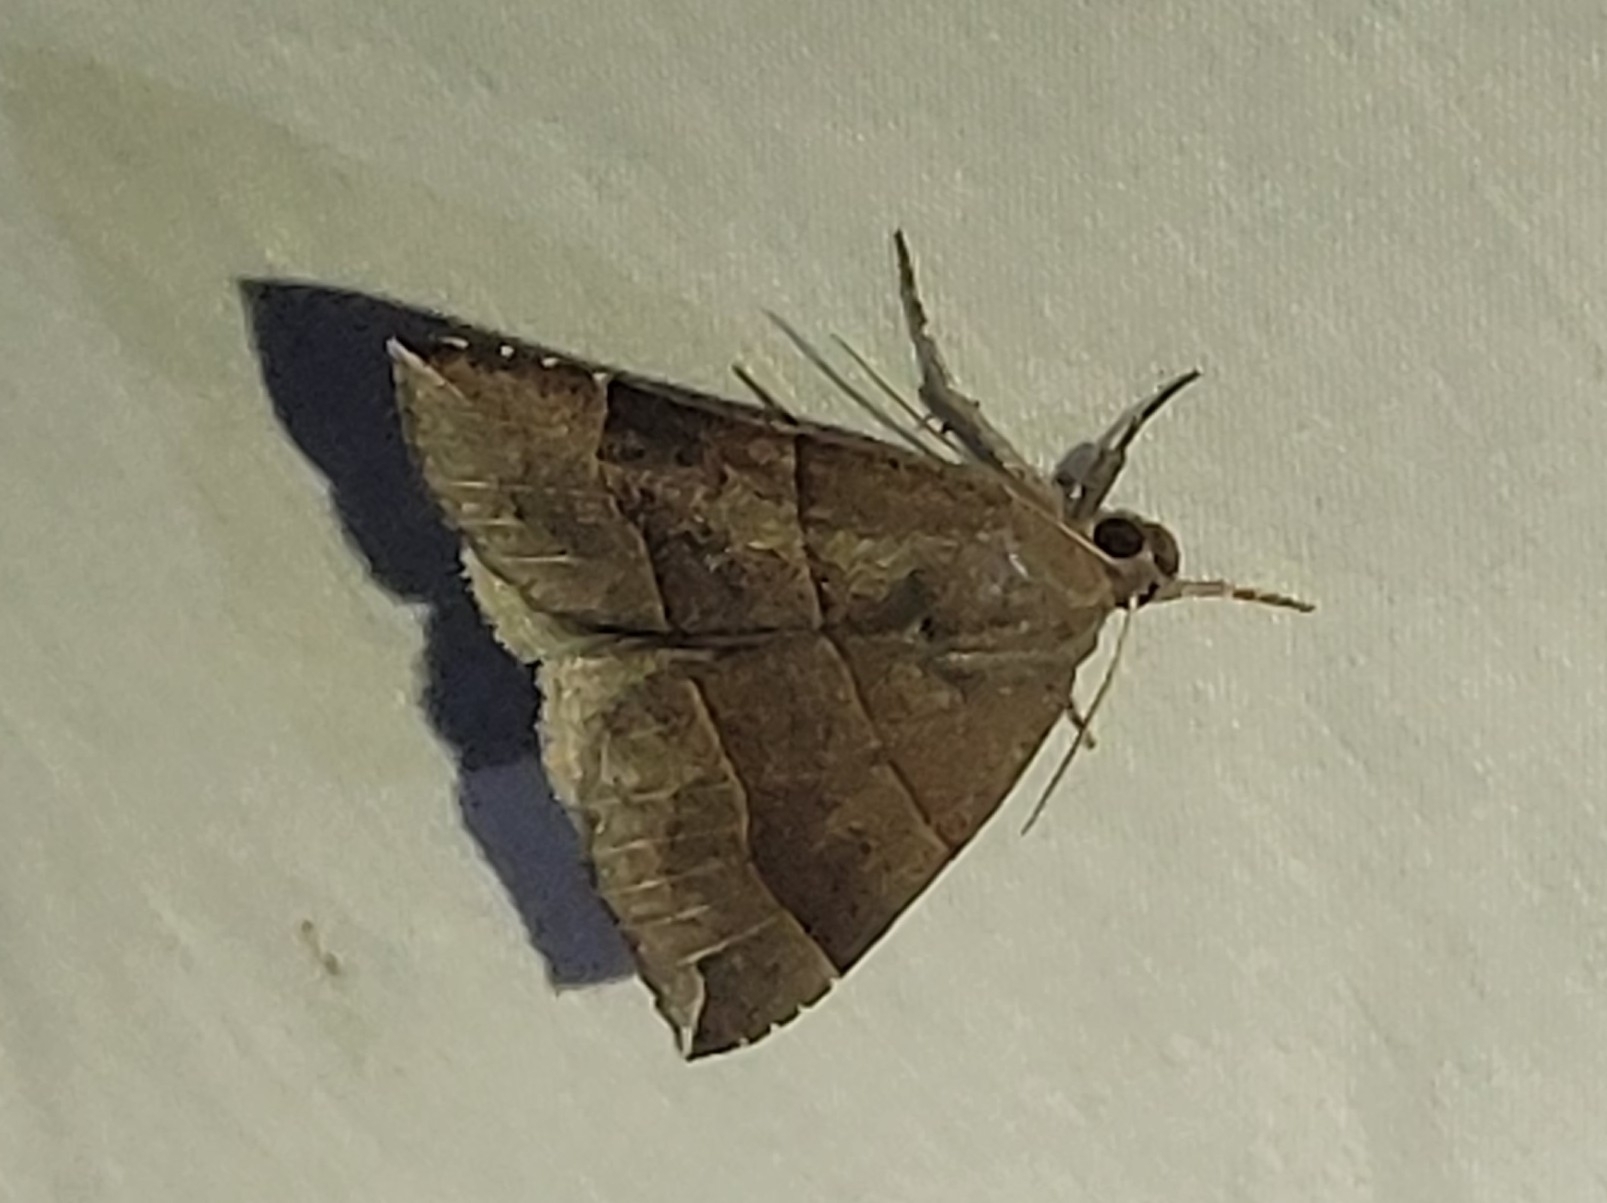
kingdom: Animalia
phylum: Arthropoda
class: Insecta
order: Lepidoptera
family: Erebidae
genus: Parallelia
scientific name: Parallelia bistriaris
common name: Maple looper moth
